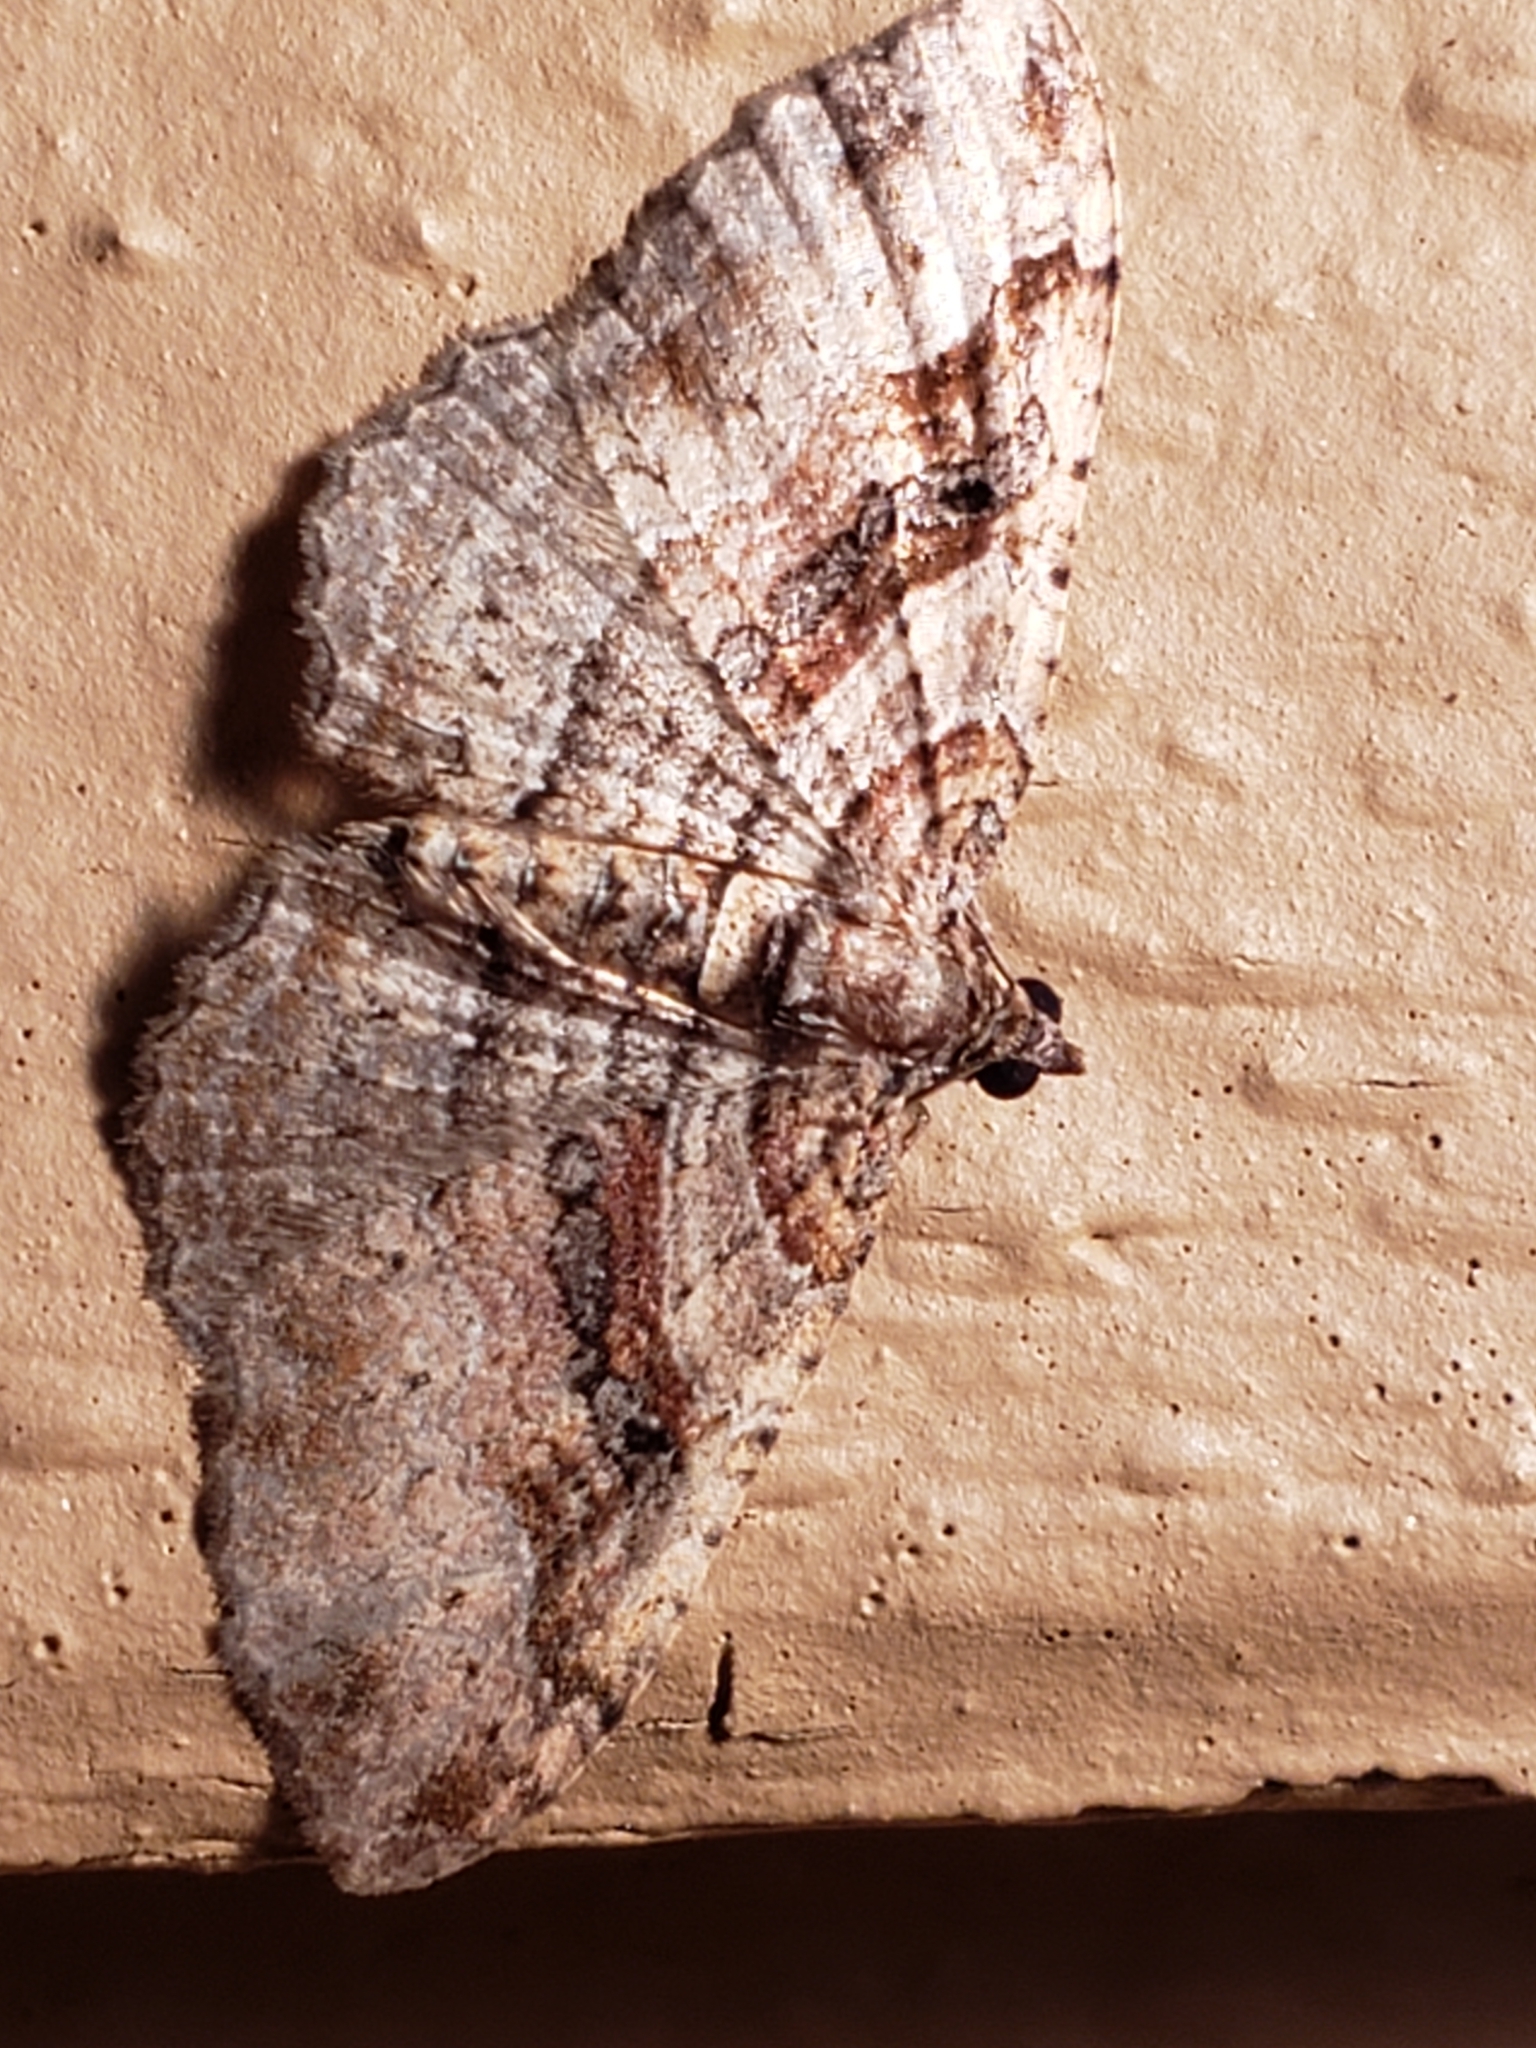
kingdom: Animalia
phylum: Arthropoda
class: Insecta
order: Lepidoptera
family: Geometridae
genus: Costaconvexa
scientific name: Costaconvexa centrostrigaria
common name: Bent-line carpet
